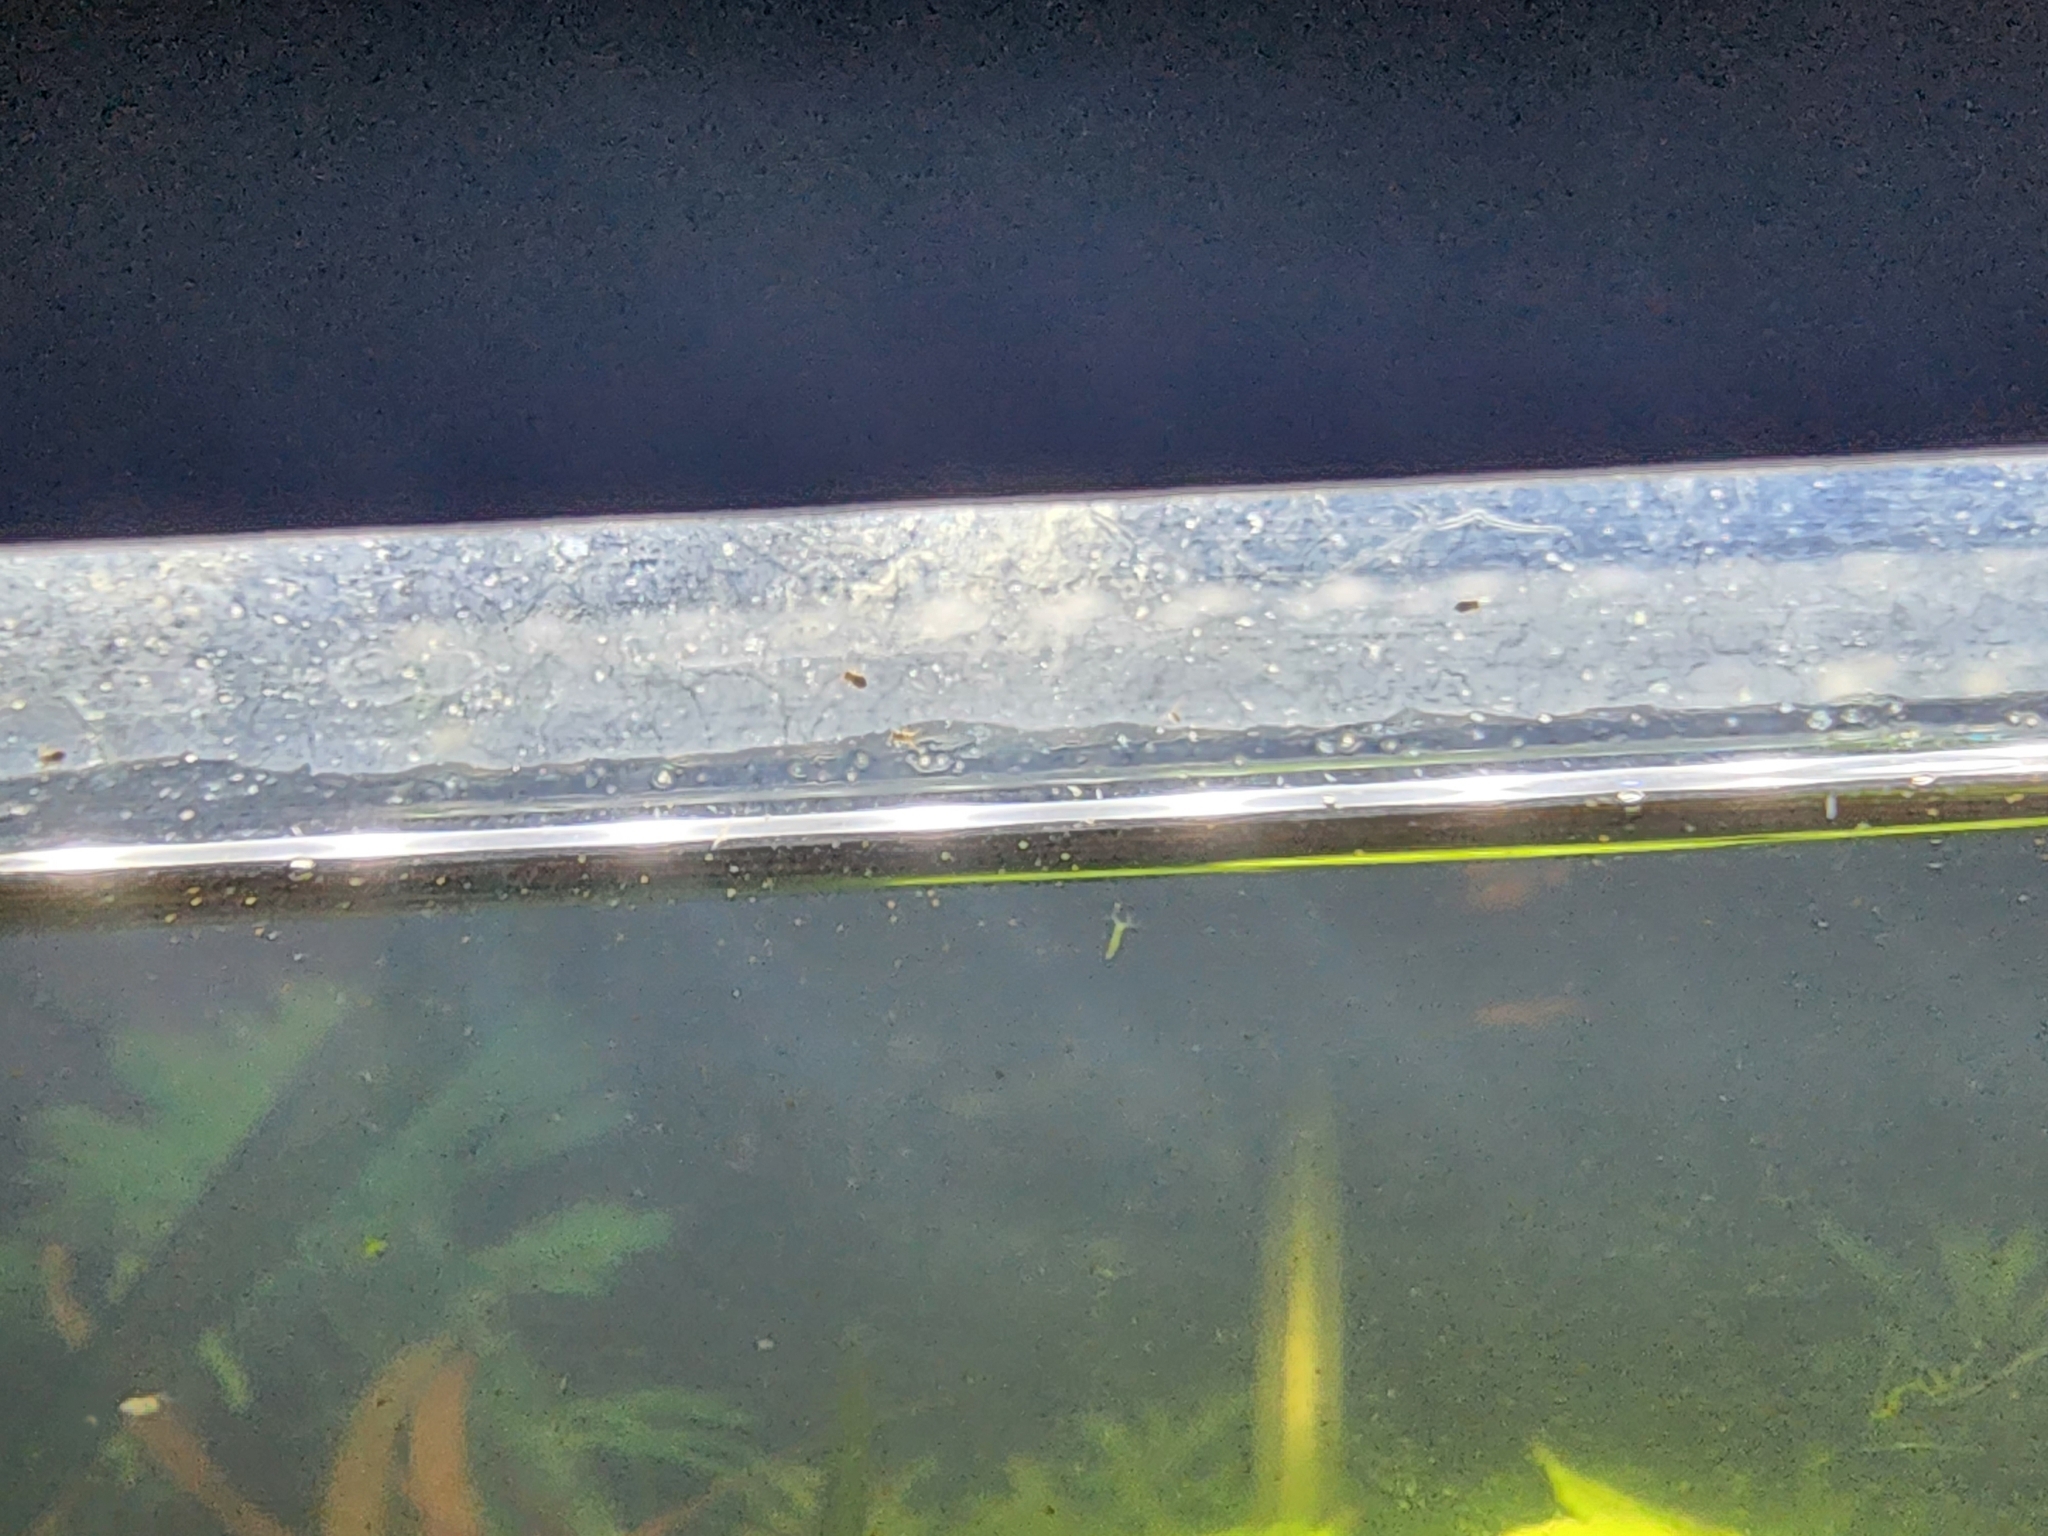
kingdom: Animalia
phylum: Cnidaria
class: Hydrozoa
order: Anthoathecata
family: Hydridae
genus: Hydra
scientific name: Hydra viridissima
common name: Green hydra
